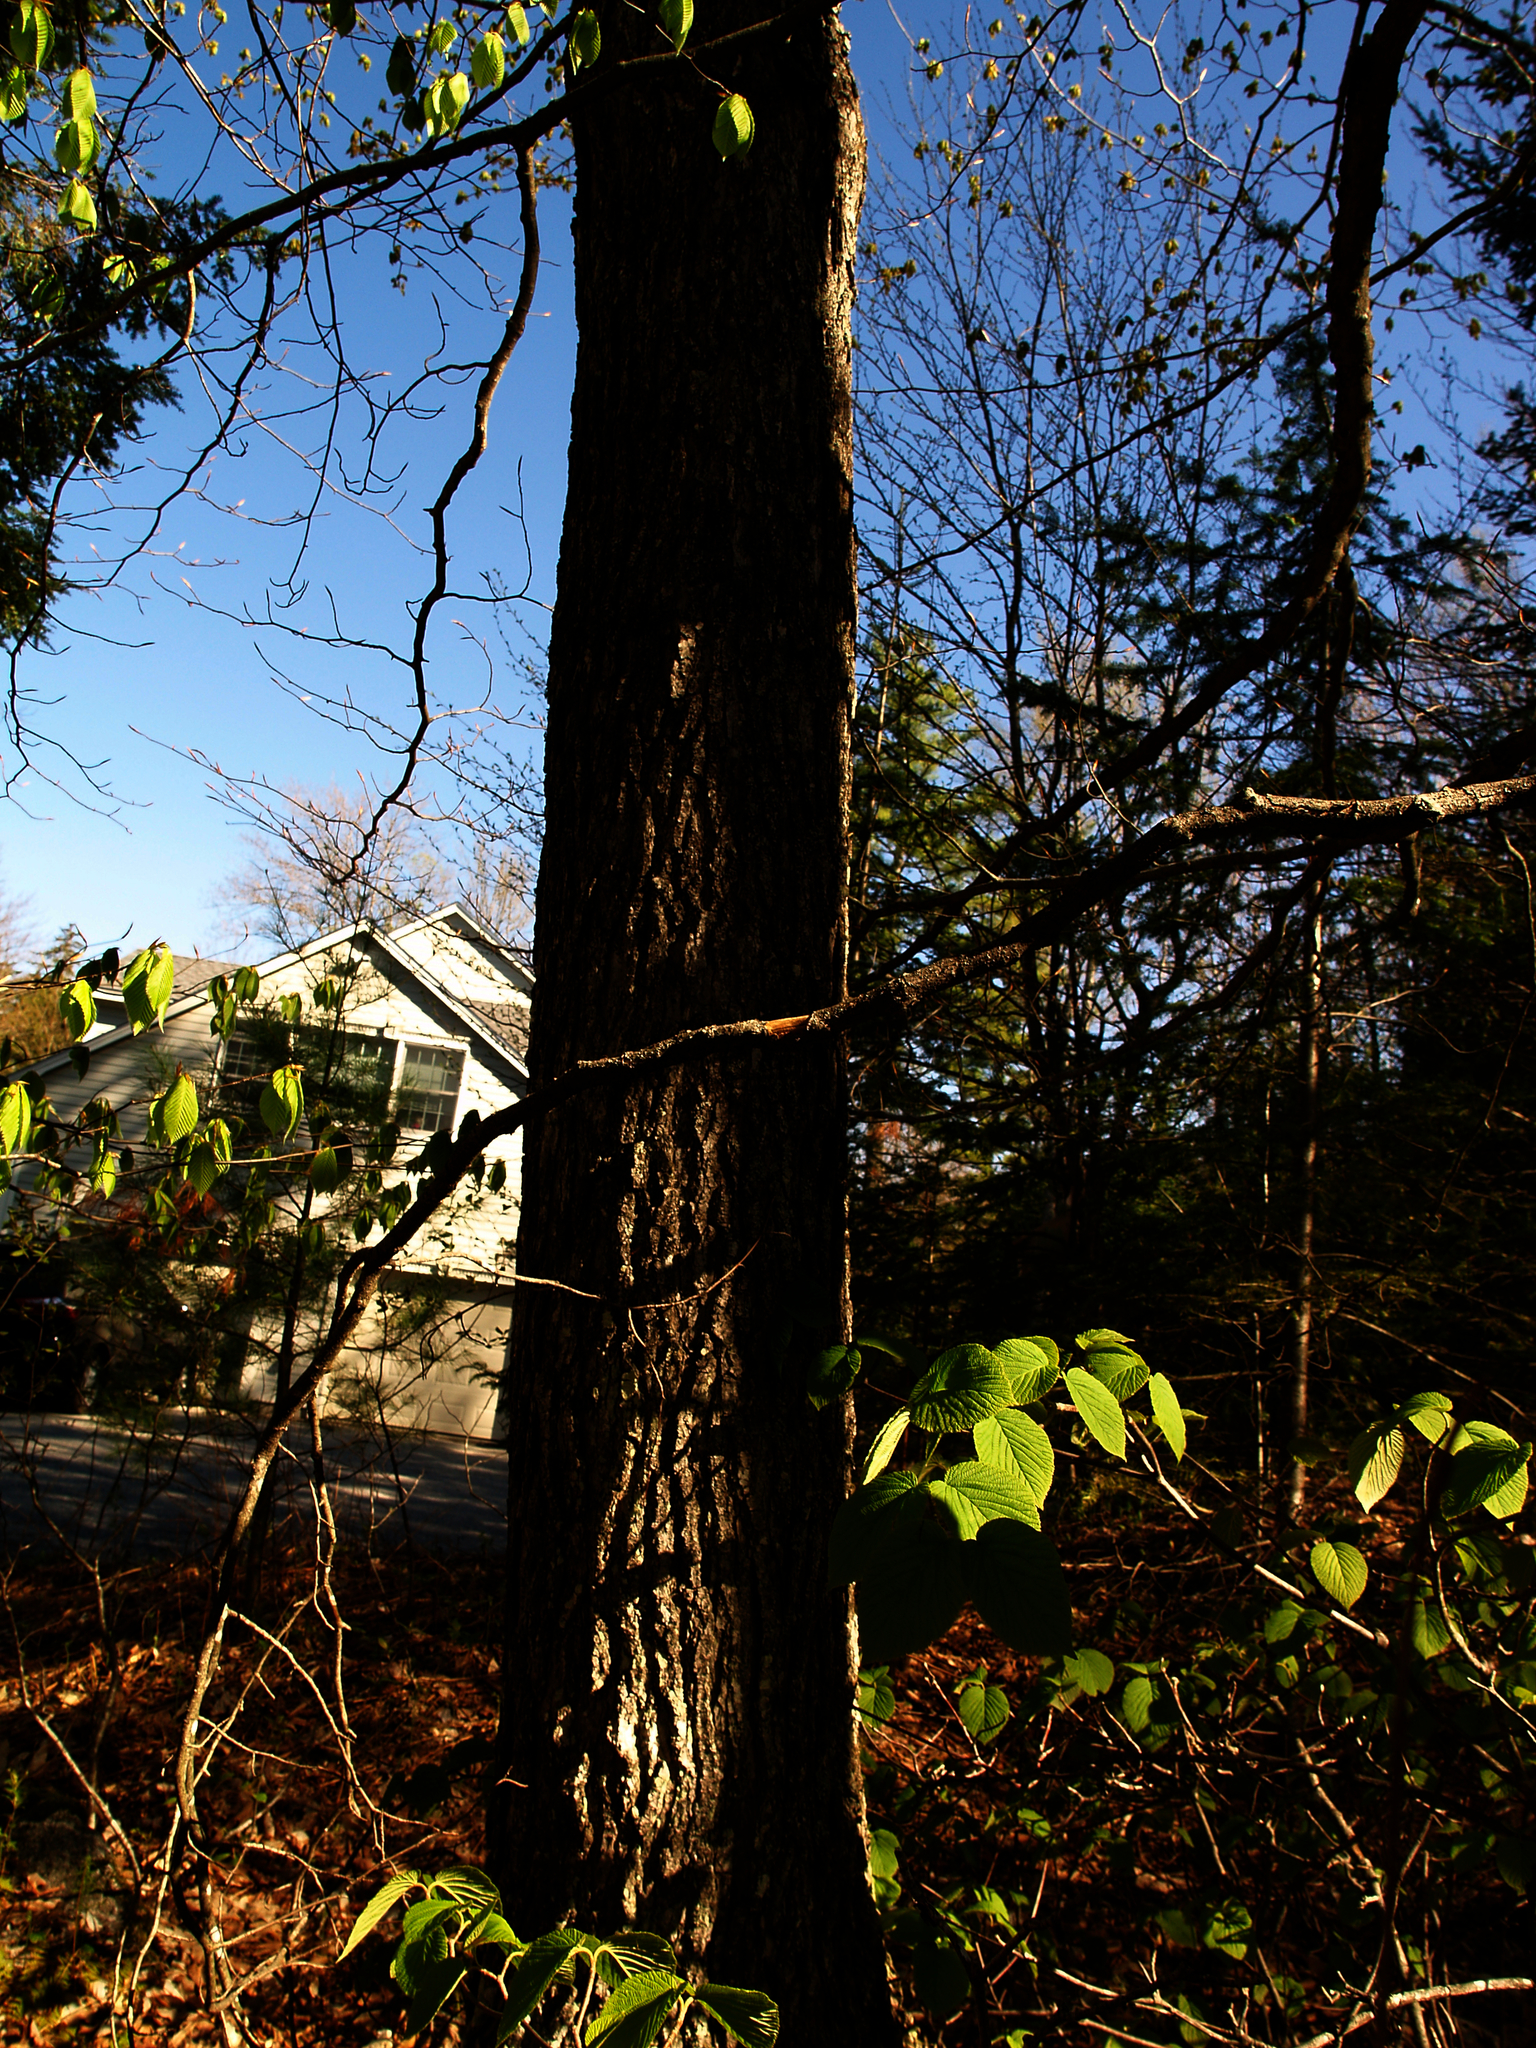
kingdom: Plantae
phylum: Tracheophyta
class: Magnoliopsida
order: Dipsacales
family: Viburnaceae
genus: Viburnum
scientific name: Viburnum lantanoides
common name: Hobblebush
